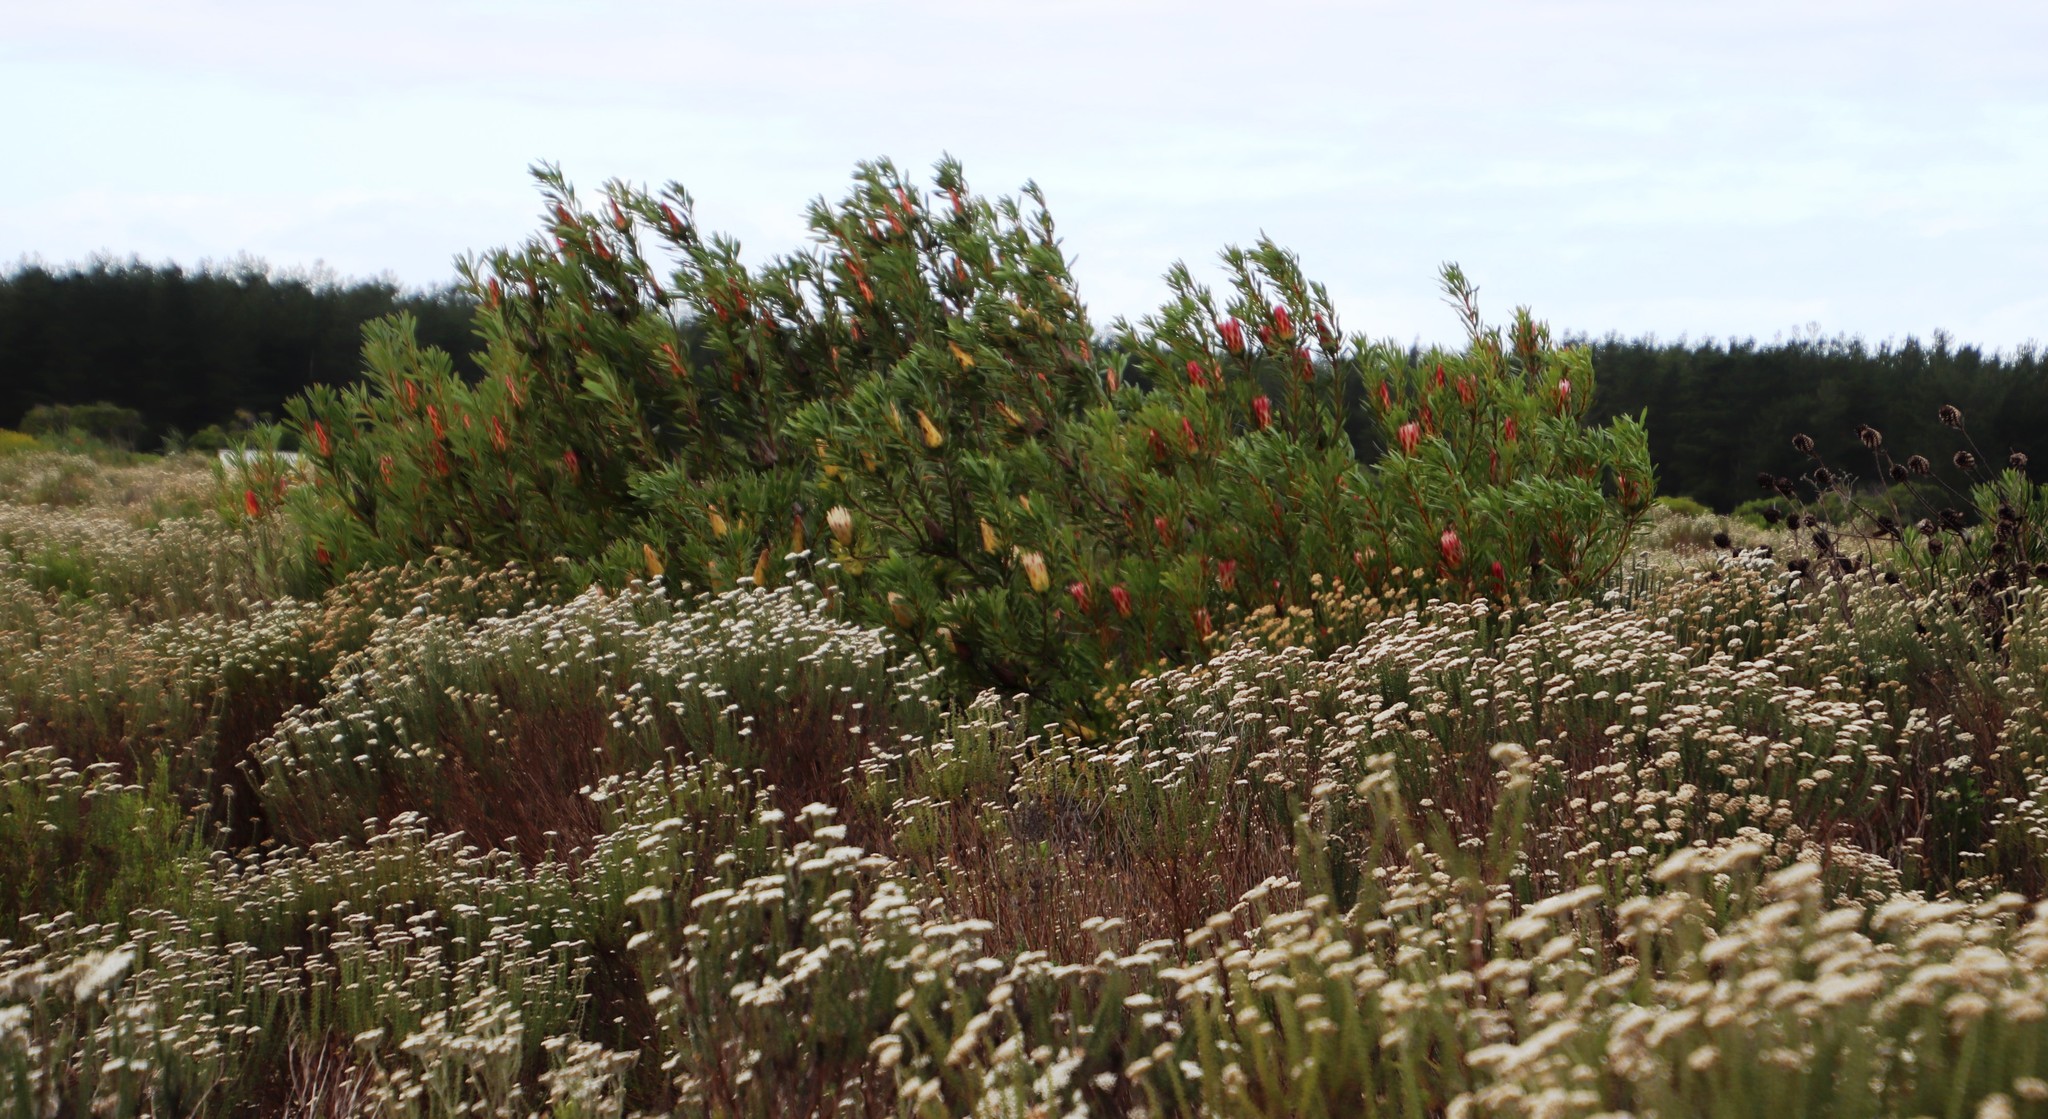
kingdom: Plantae
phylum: Tracheophyta
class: Magnoliopsida
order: Proteales
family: Proteaceae
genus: Protea
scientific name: Protea repens
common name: Sugarbush
